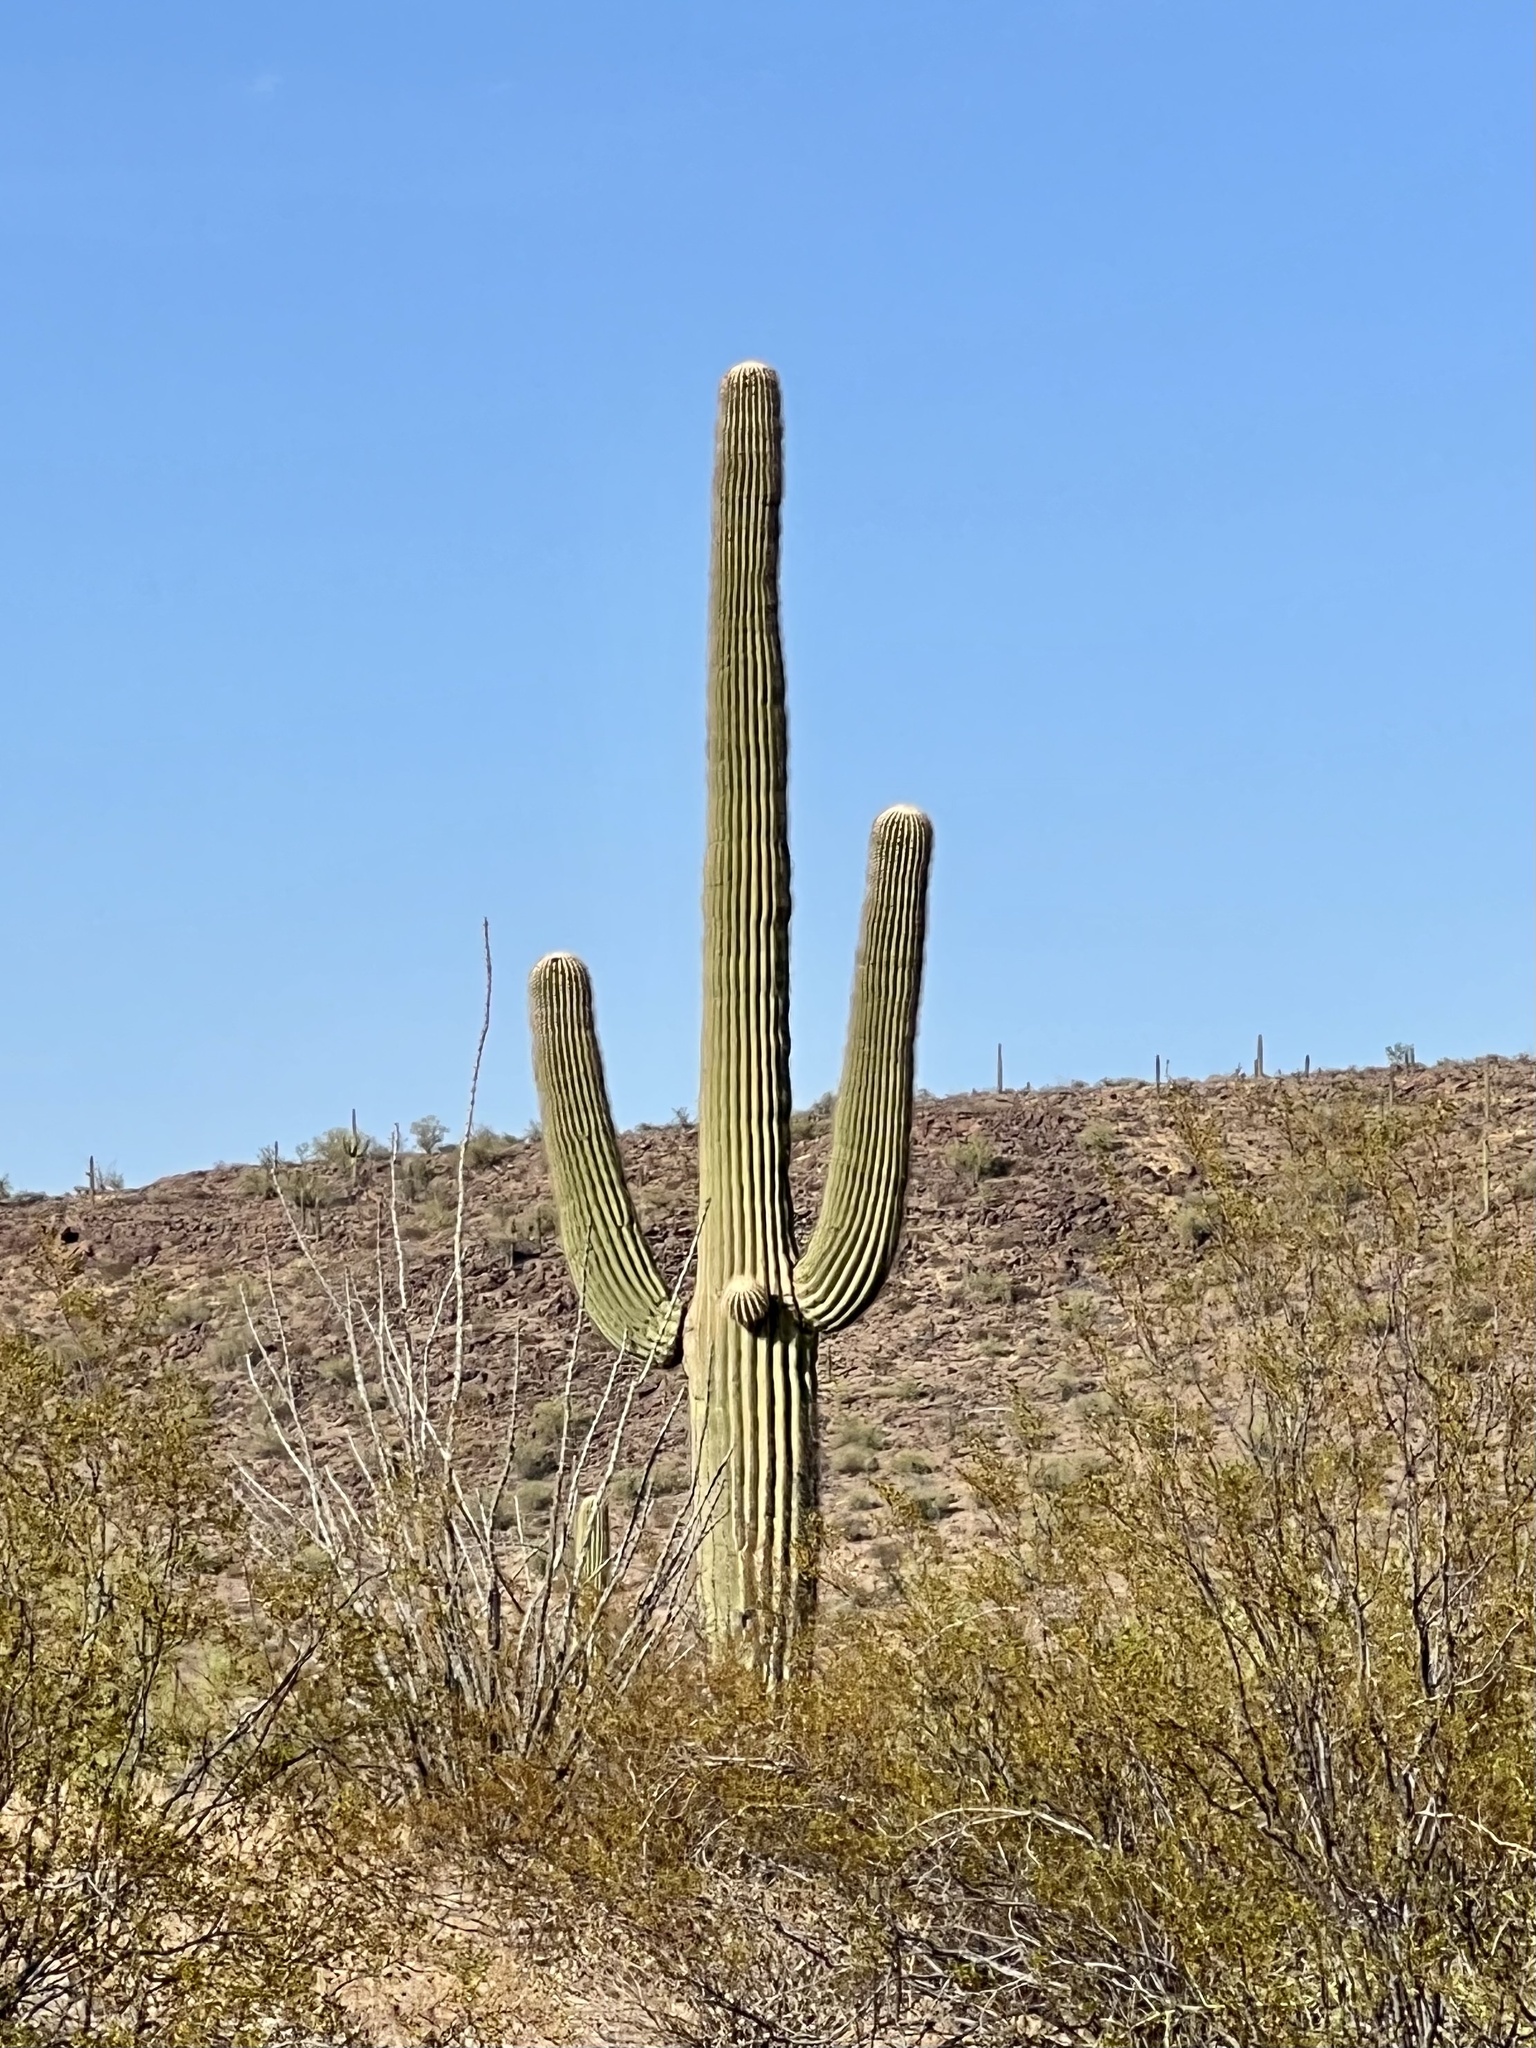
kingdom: Plantae
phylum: Tracheophyta
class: Magnoliopsida
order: Caryophyllales
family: Cactaceae
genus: Carnegiea
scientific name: Carnegiea gigantea
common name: Saguaro
